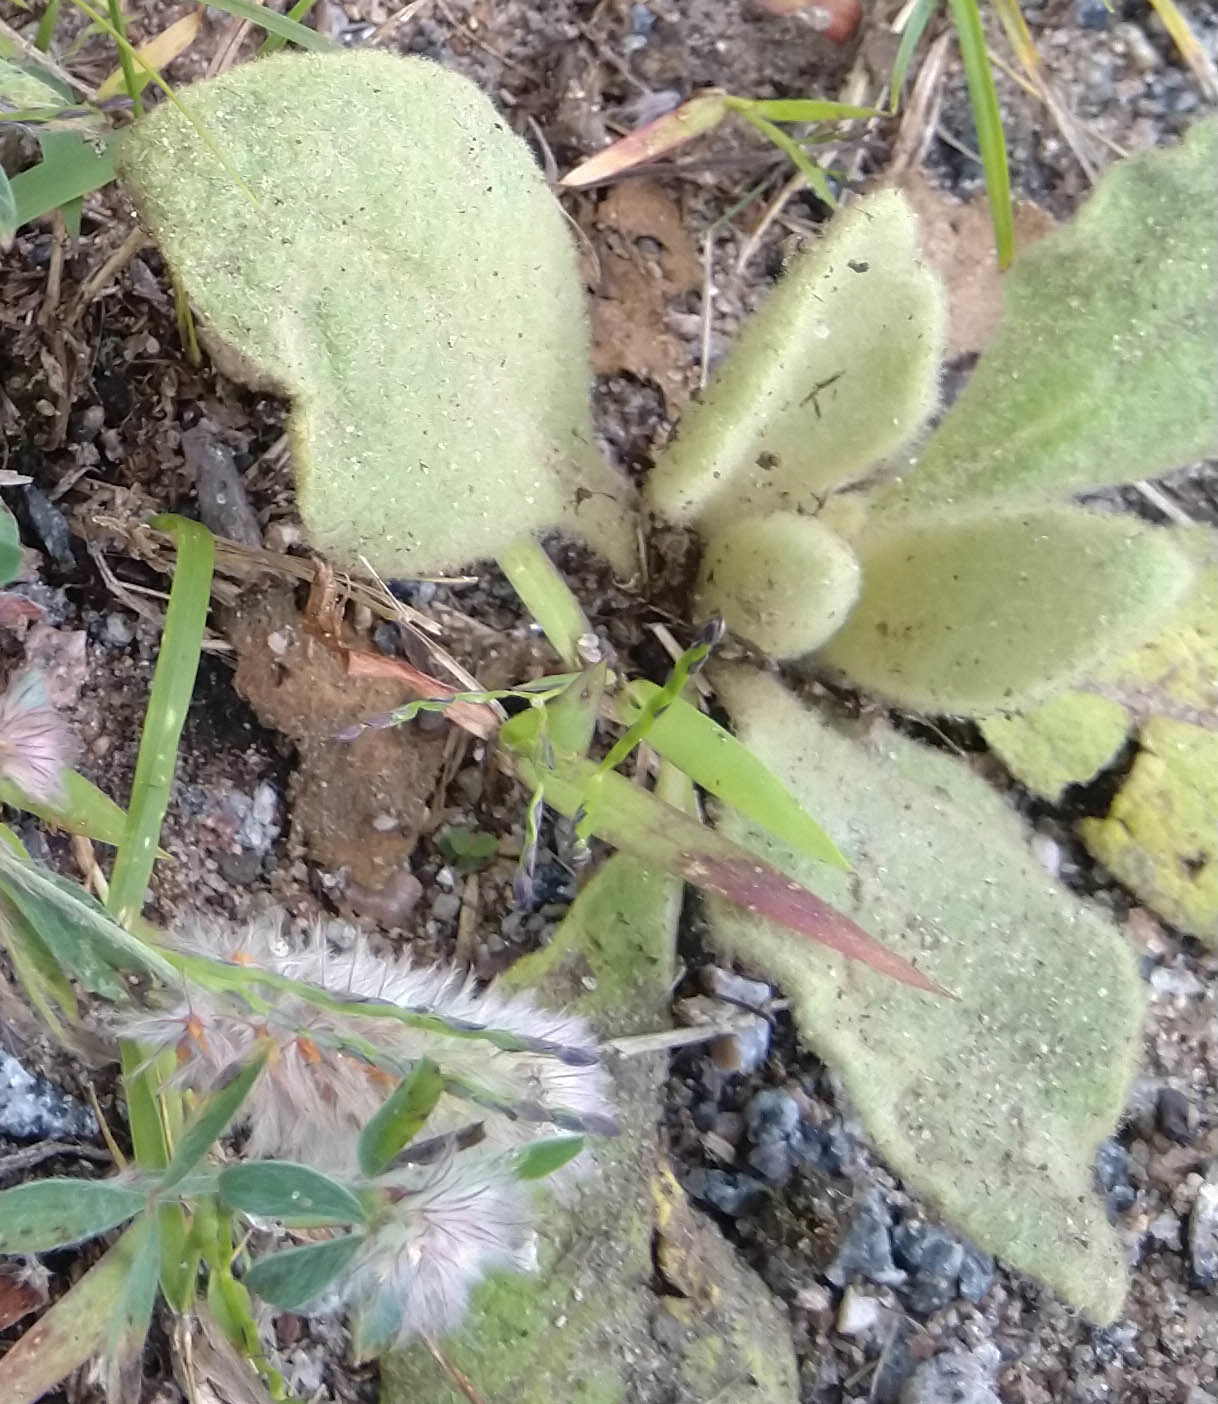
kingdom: Plantae
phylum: Tracheophyta
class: Magnoliopsida
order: Lamiales
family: Scrophulariaceae
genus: Verbascum
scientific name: Verbascum thapsus
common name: Common mullein
